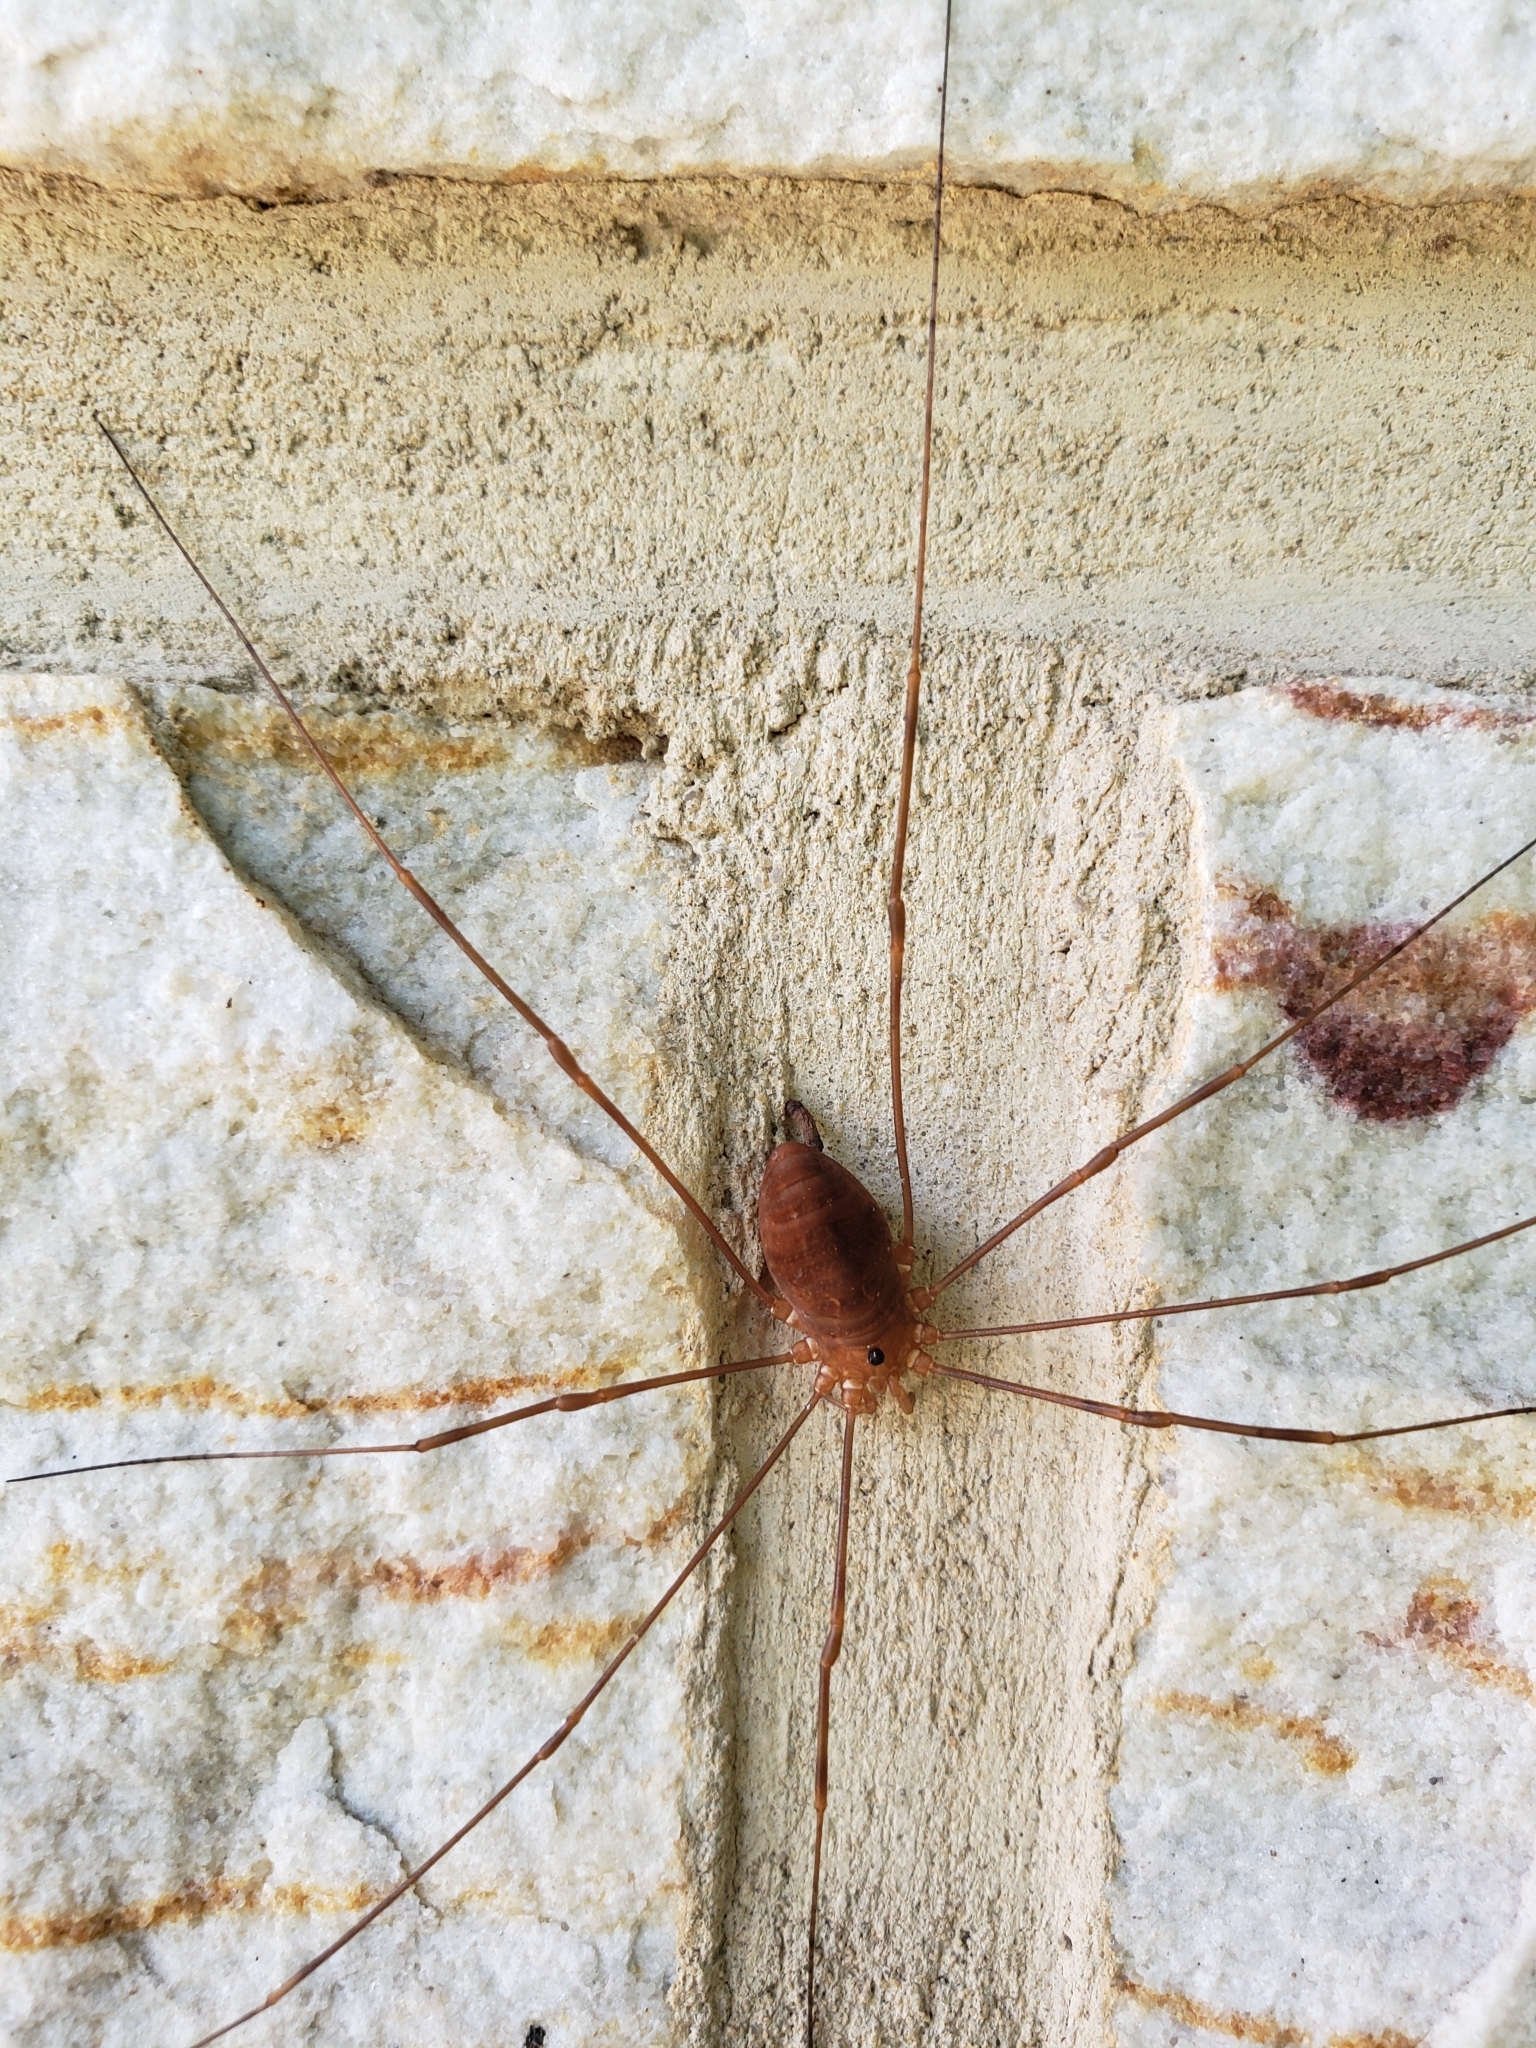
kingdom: Animalia
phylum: Arthropoda
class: Arachnida
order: Opiliones
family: Sclerosomatidae
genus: Leiobunum
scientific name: Leiobunum ventricosum
